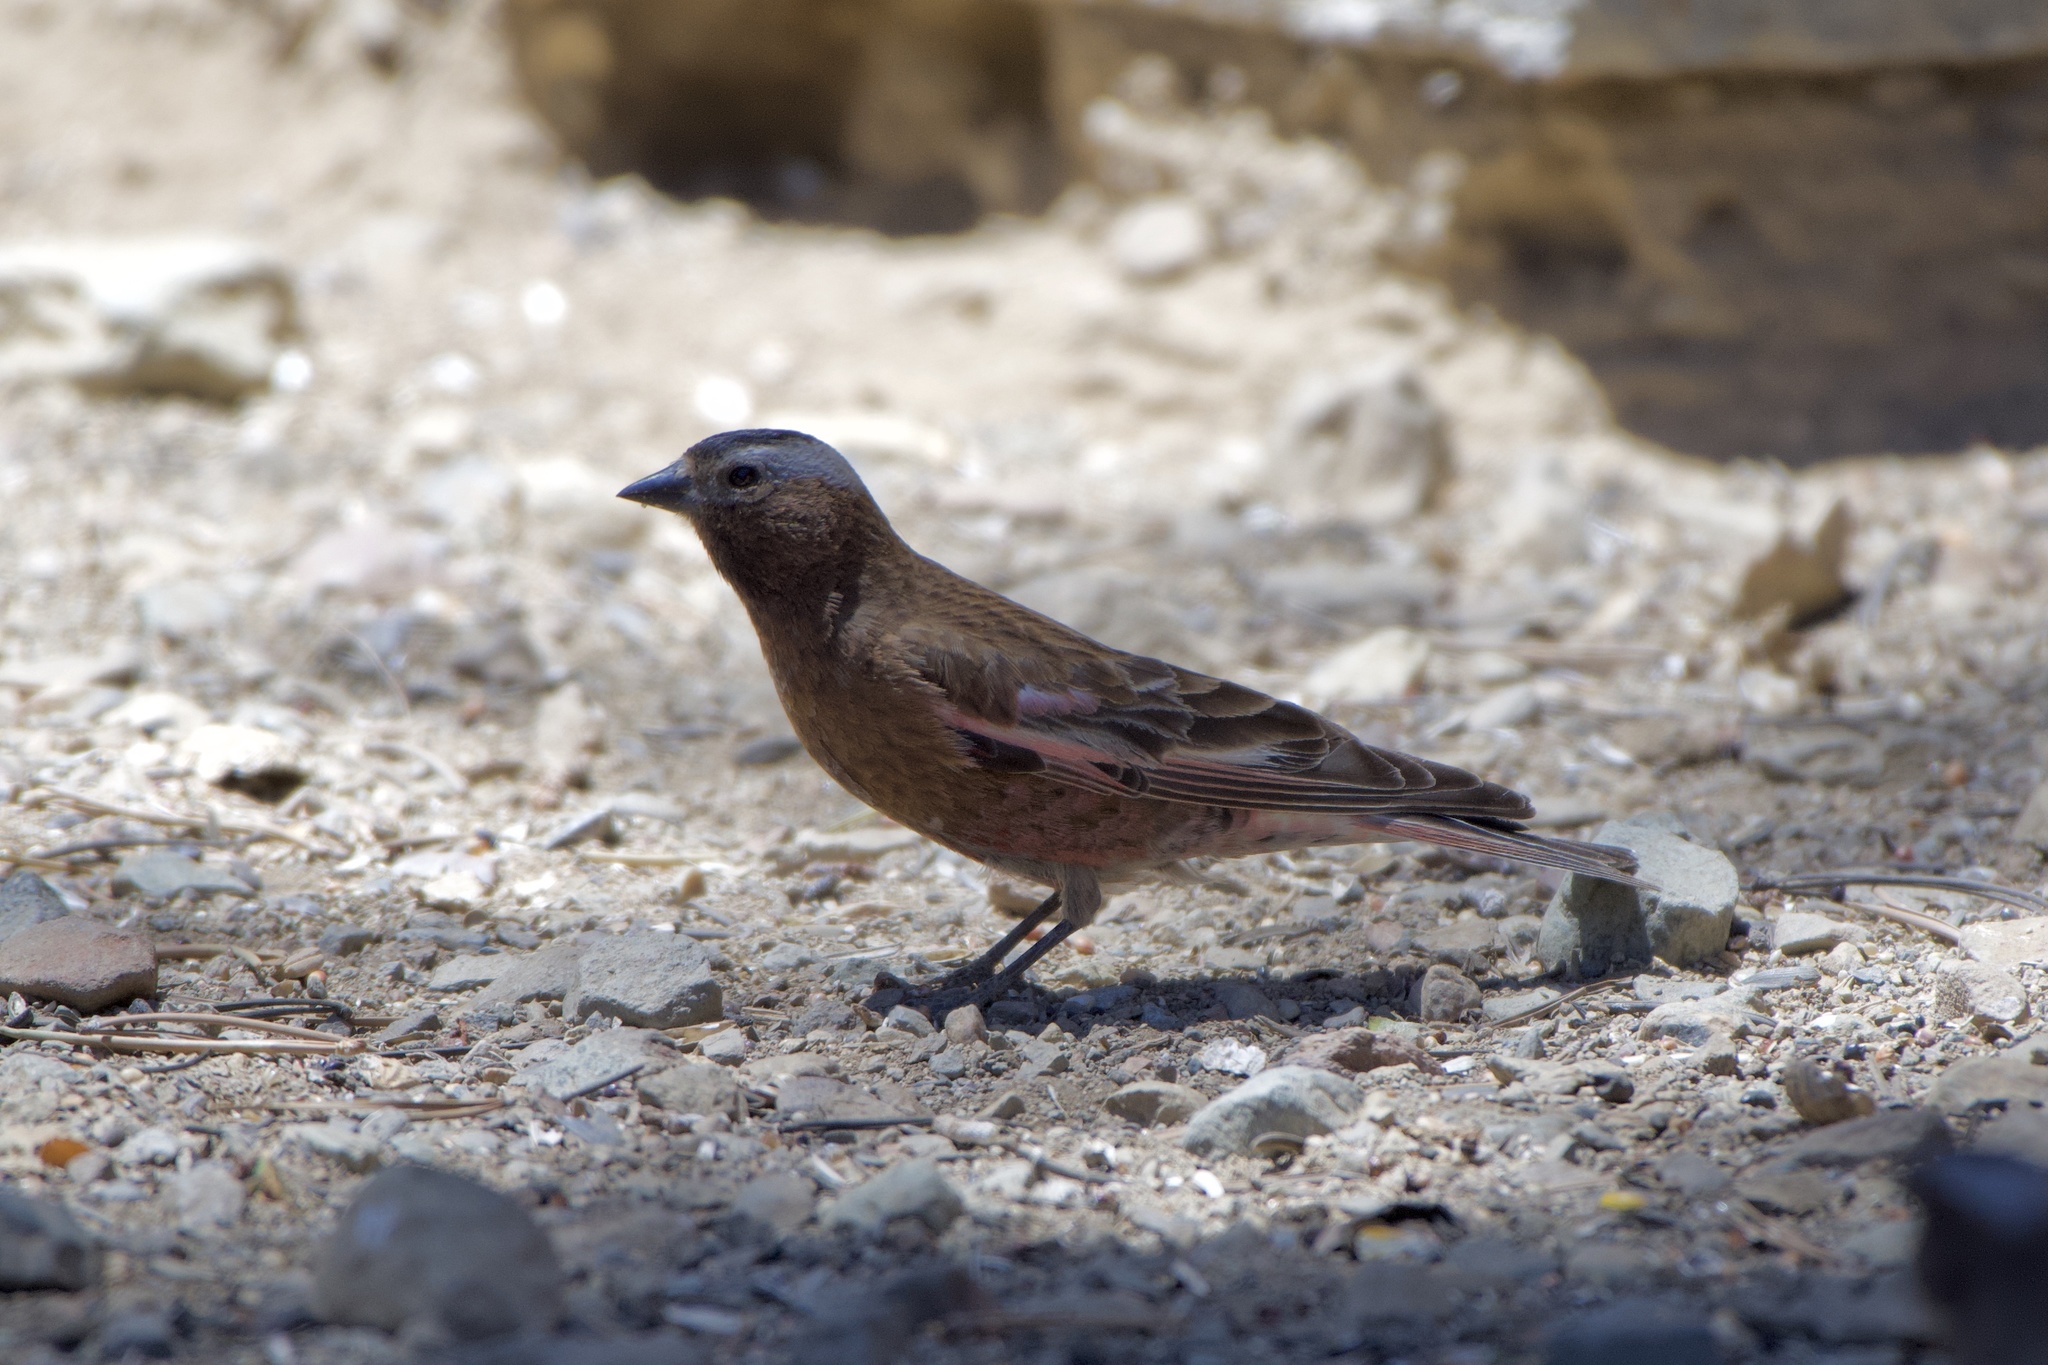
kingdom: Animalia
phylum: Chordata
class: Aves
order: Passeriformes
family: Fringillidae
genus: Leucosticte
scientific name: Leucosticte tephrocotis
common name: Gray-crowned rosy-finch
